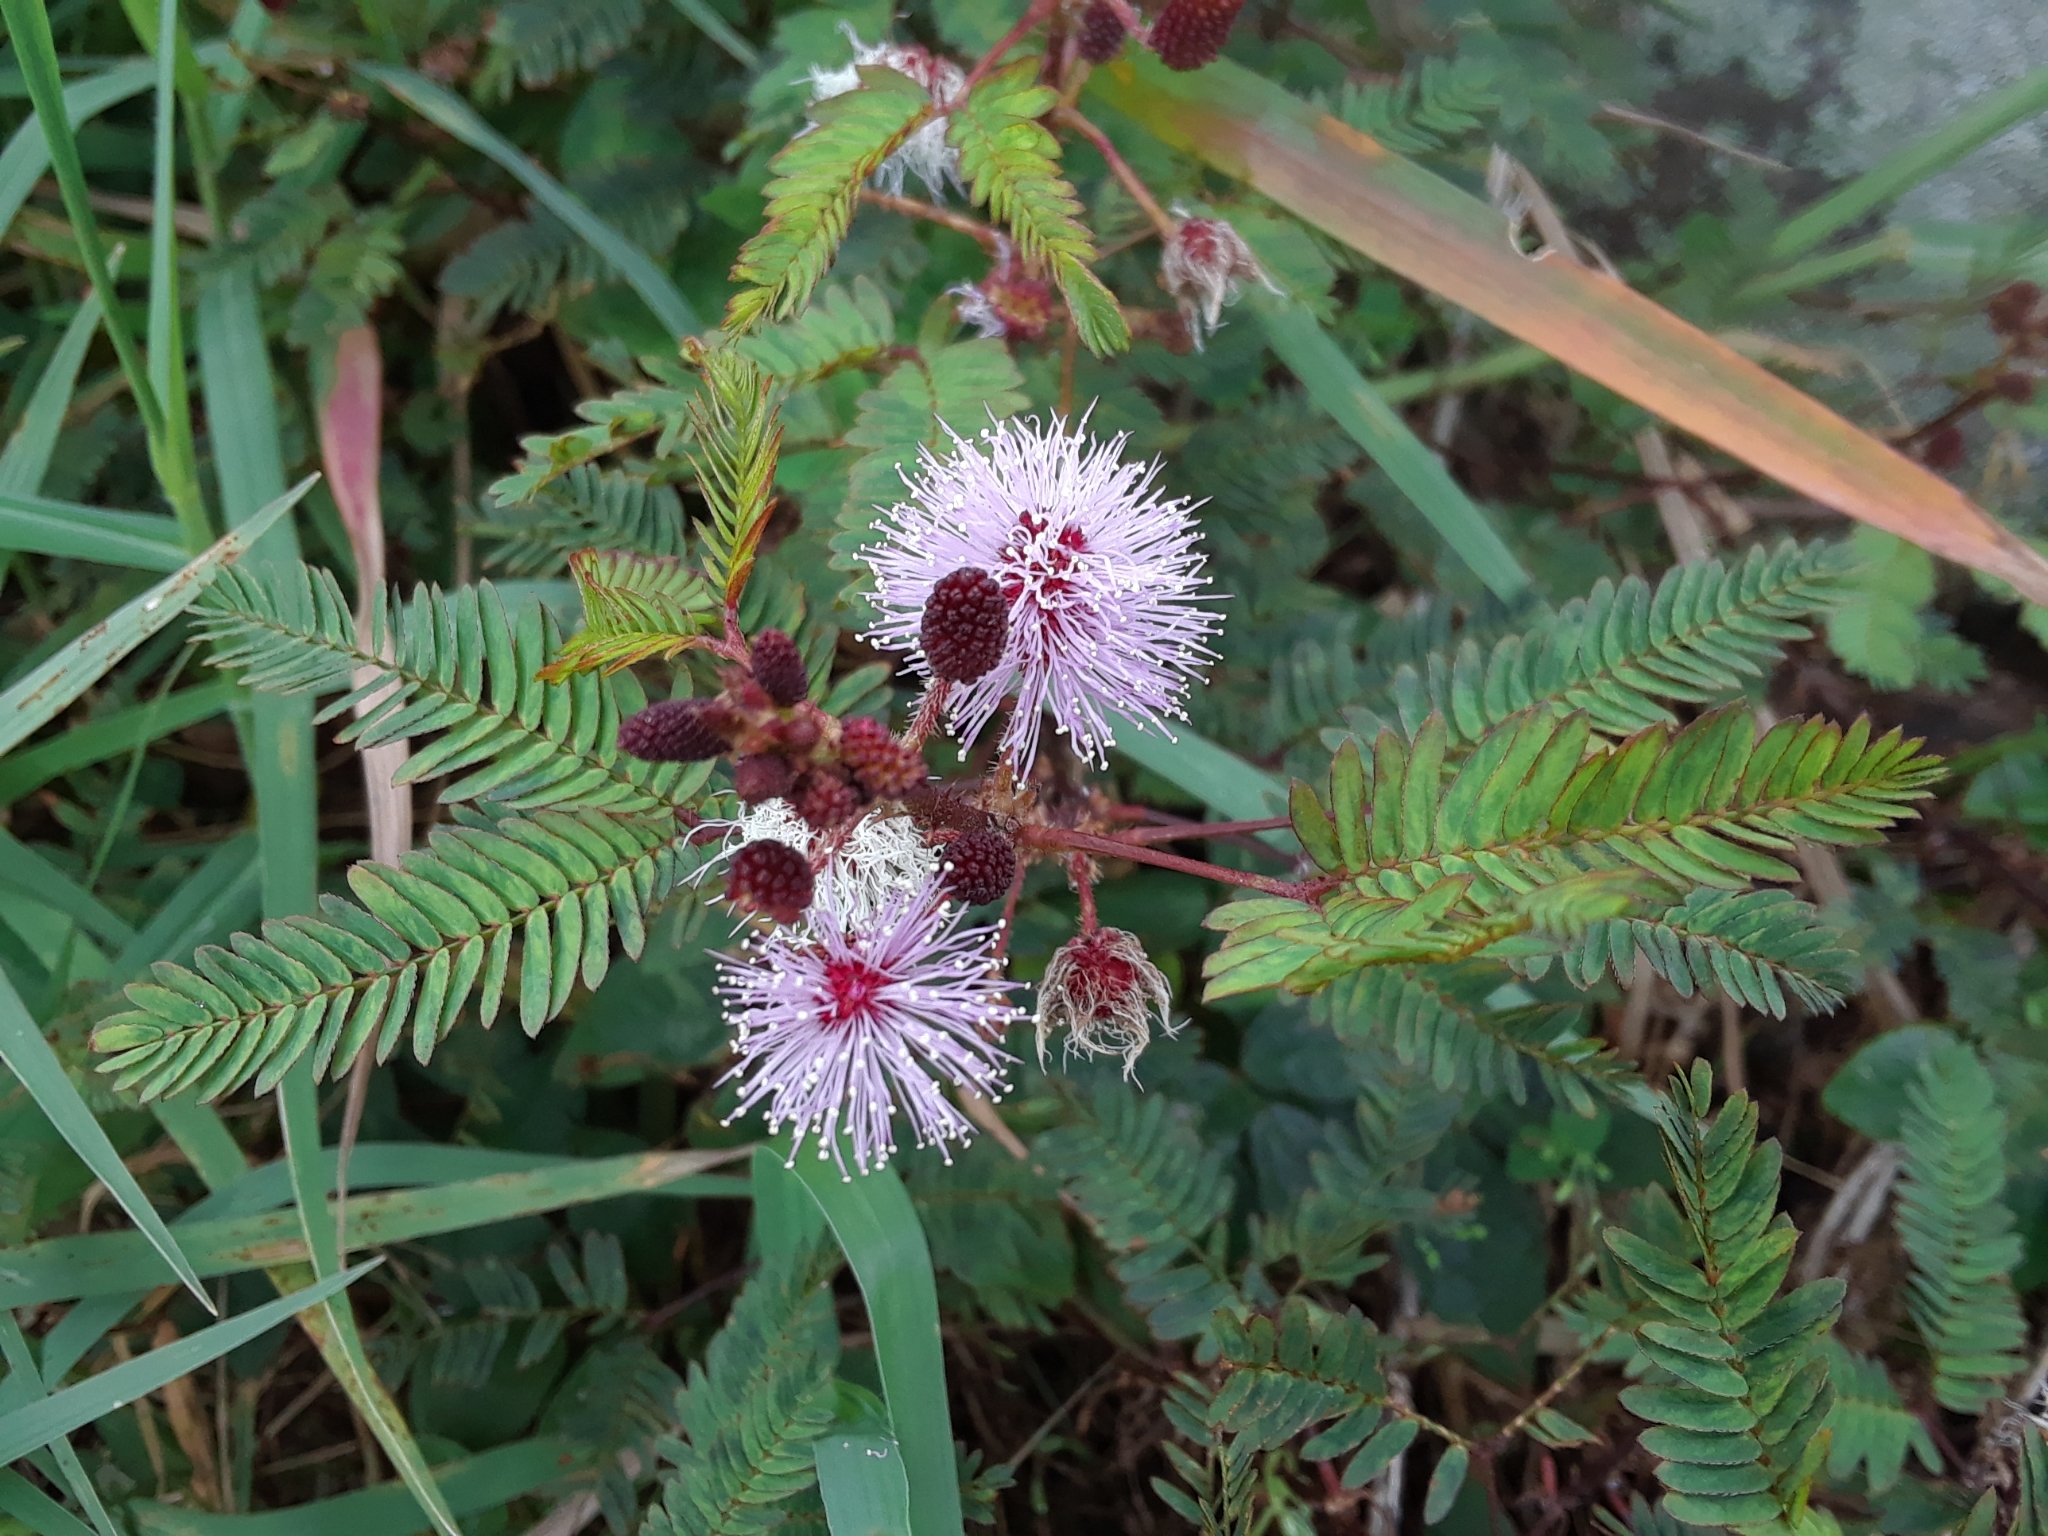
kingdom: Plantae
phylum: Tracheophyta
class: Magnoliopsida
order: Fabales
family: Fabaceae
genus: Mimosa
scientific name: Mimosa pudica
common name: Sensitive plant
